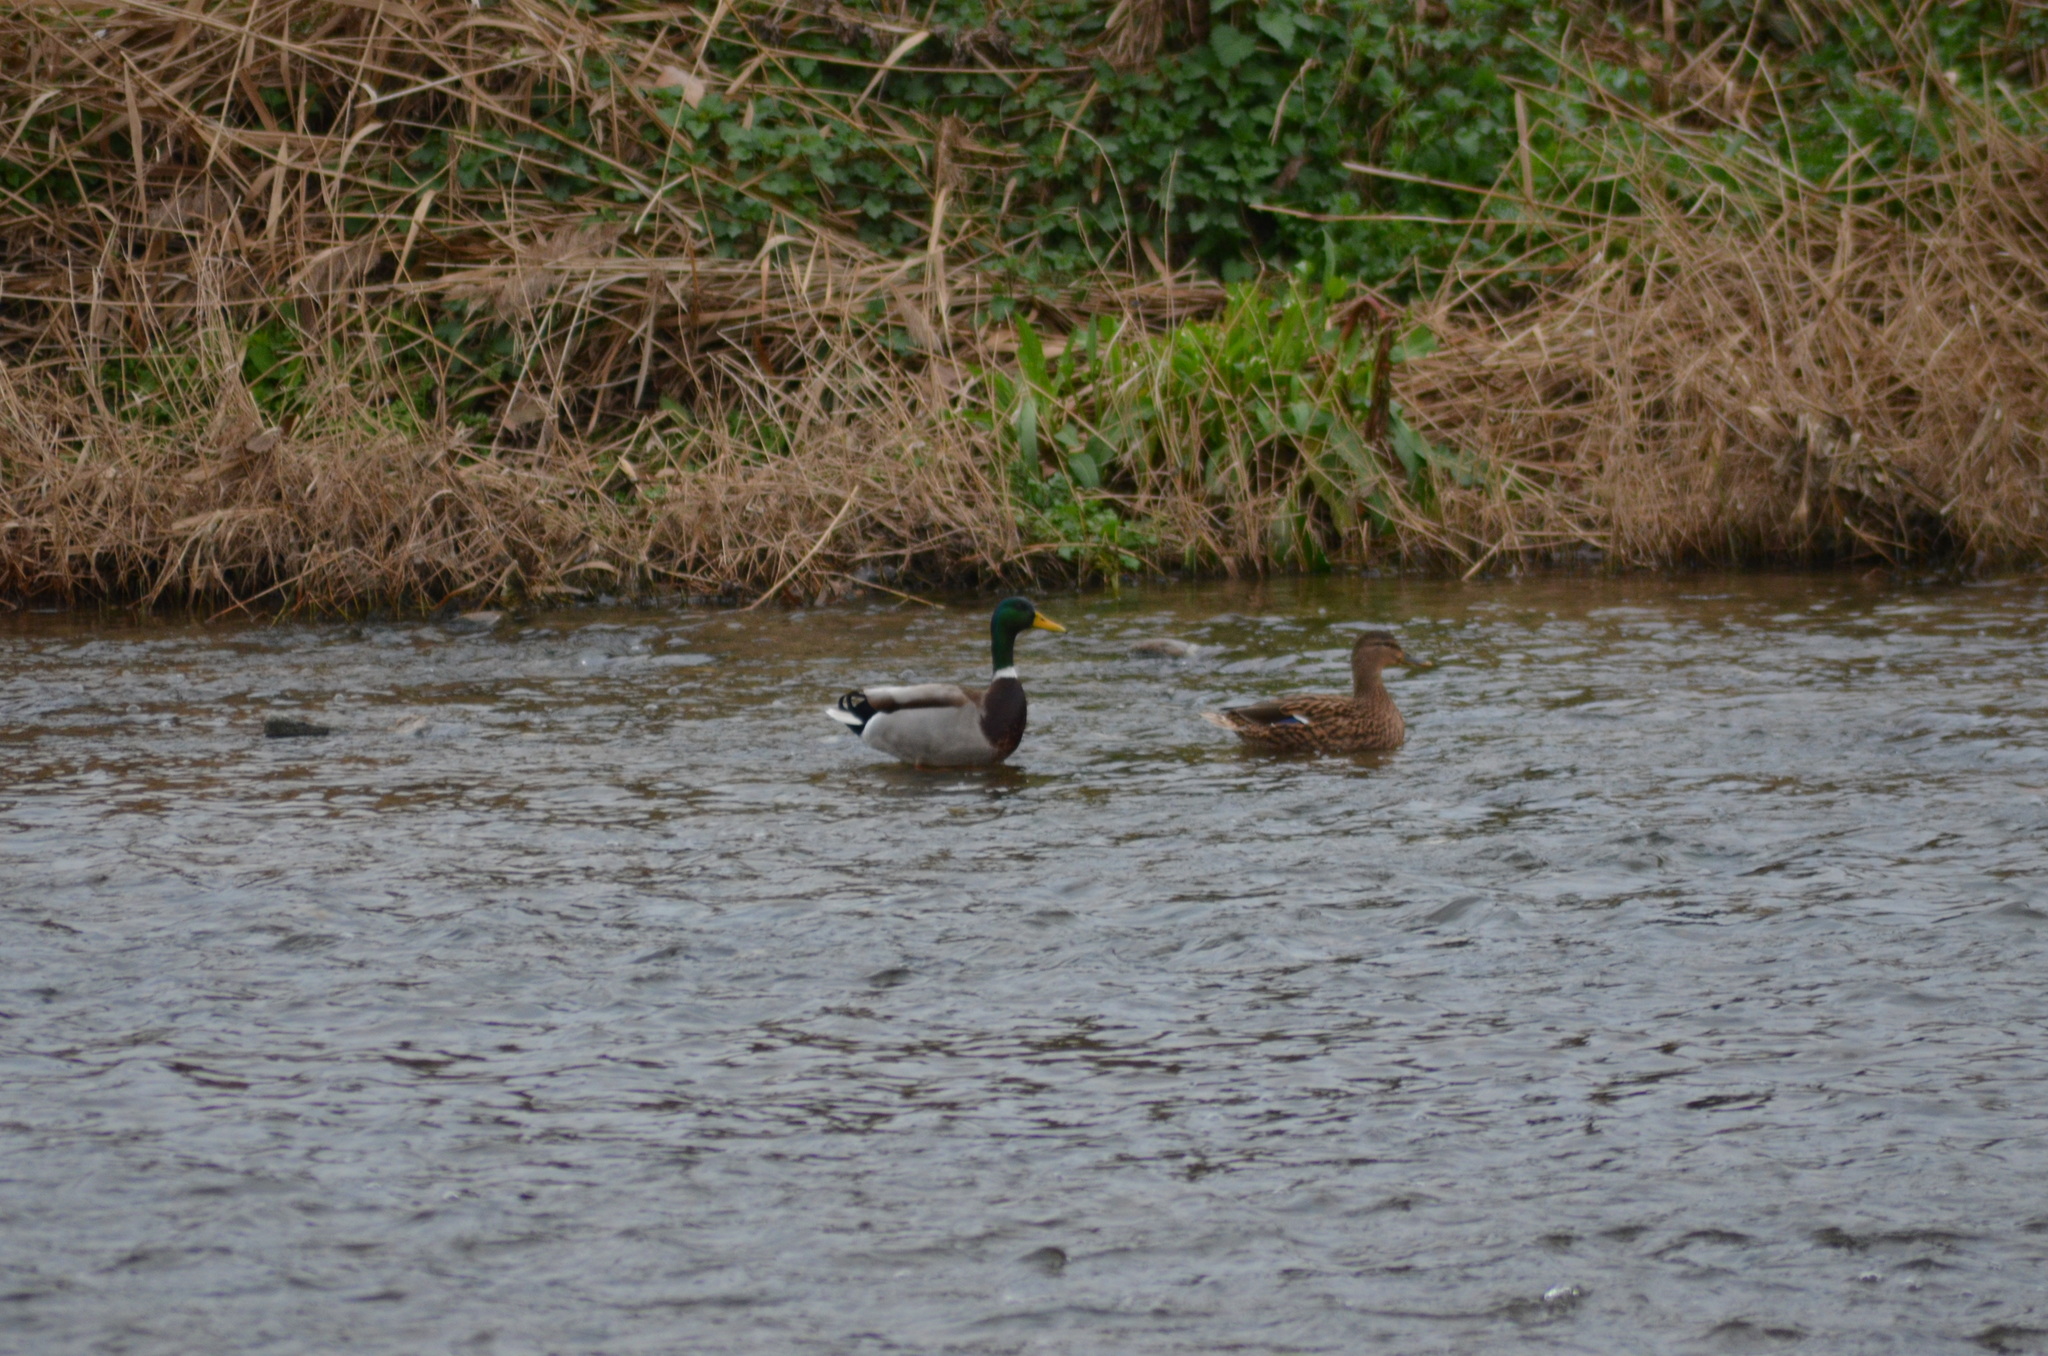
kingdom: Animalia
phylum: Chordata
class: Aves
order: Anseriformes
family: Anatidae
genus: Anas
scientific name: Anas platyrhynchos
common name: Mallard
